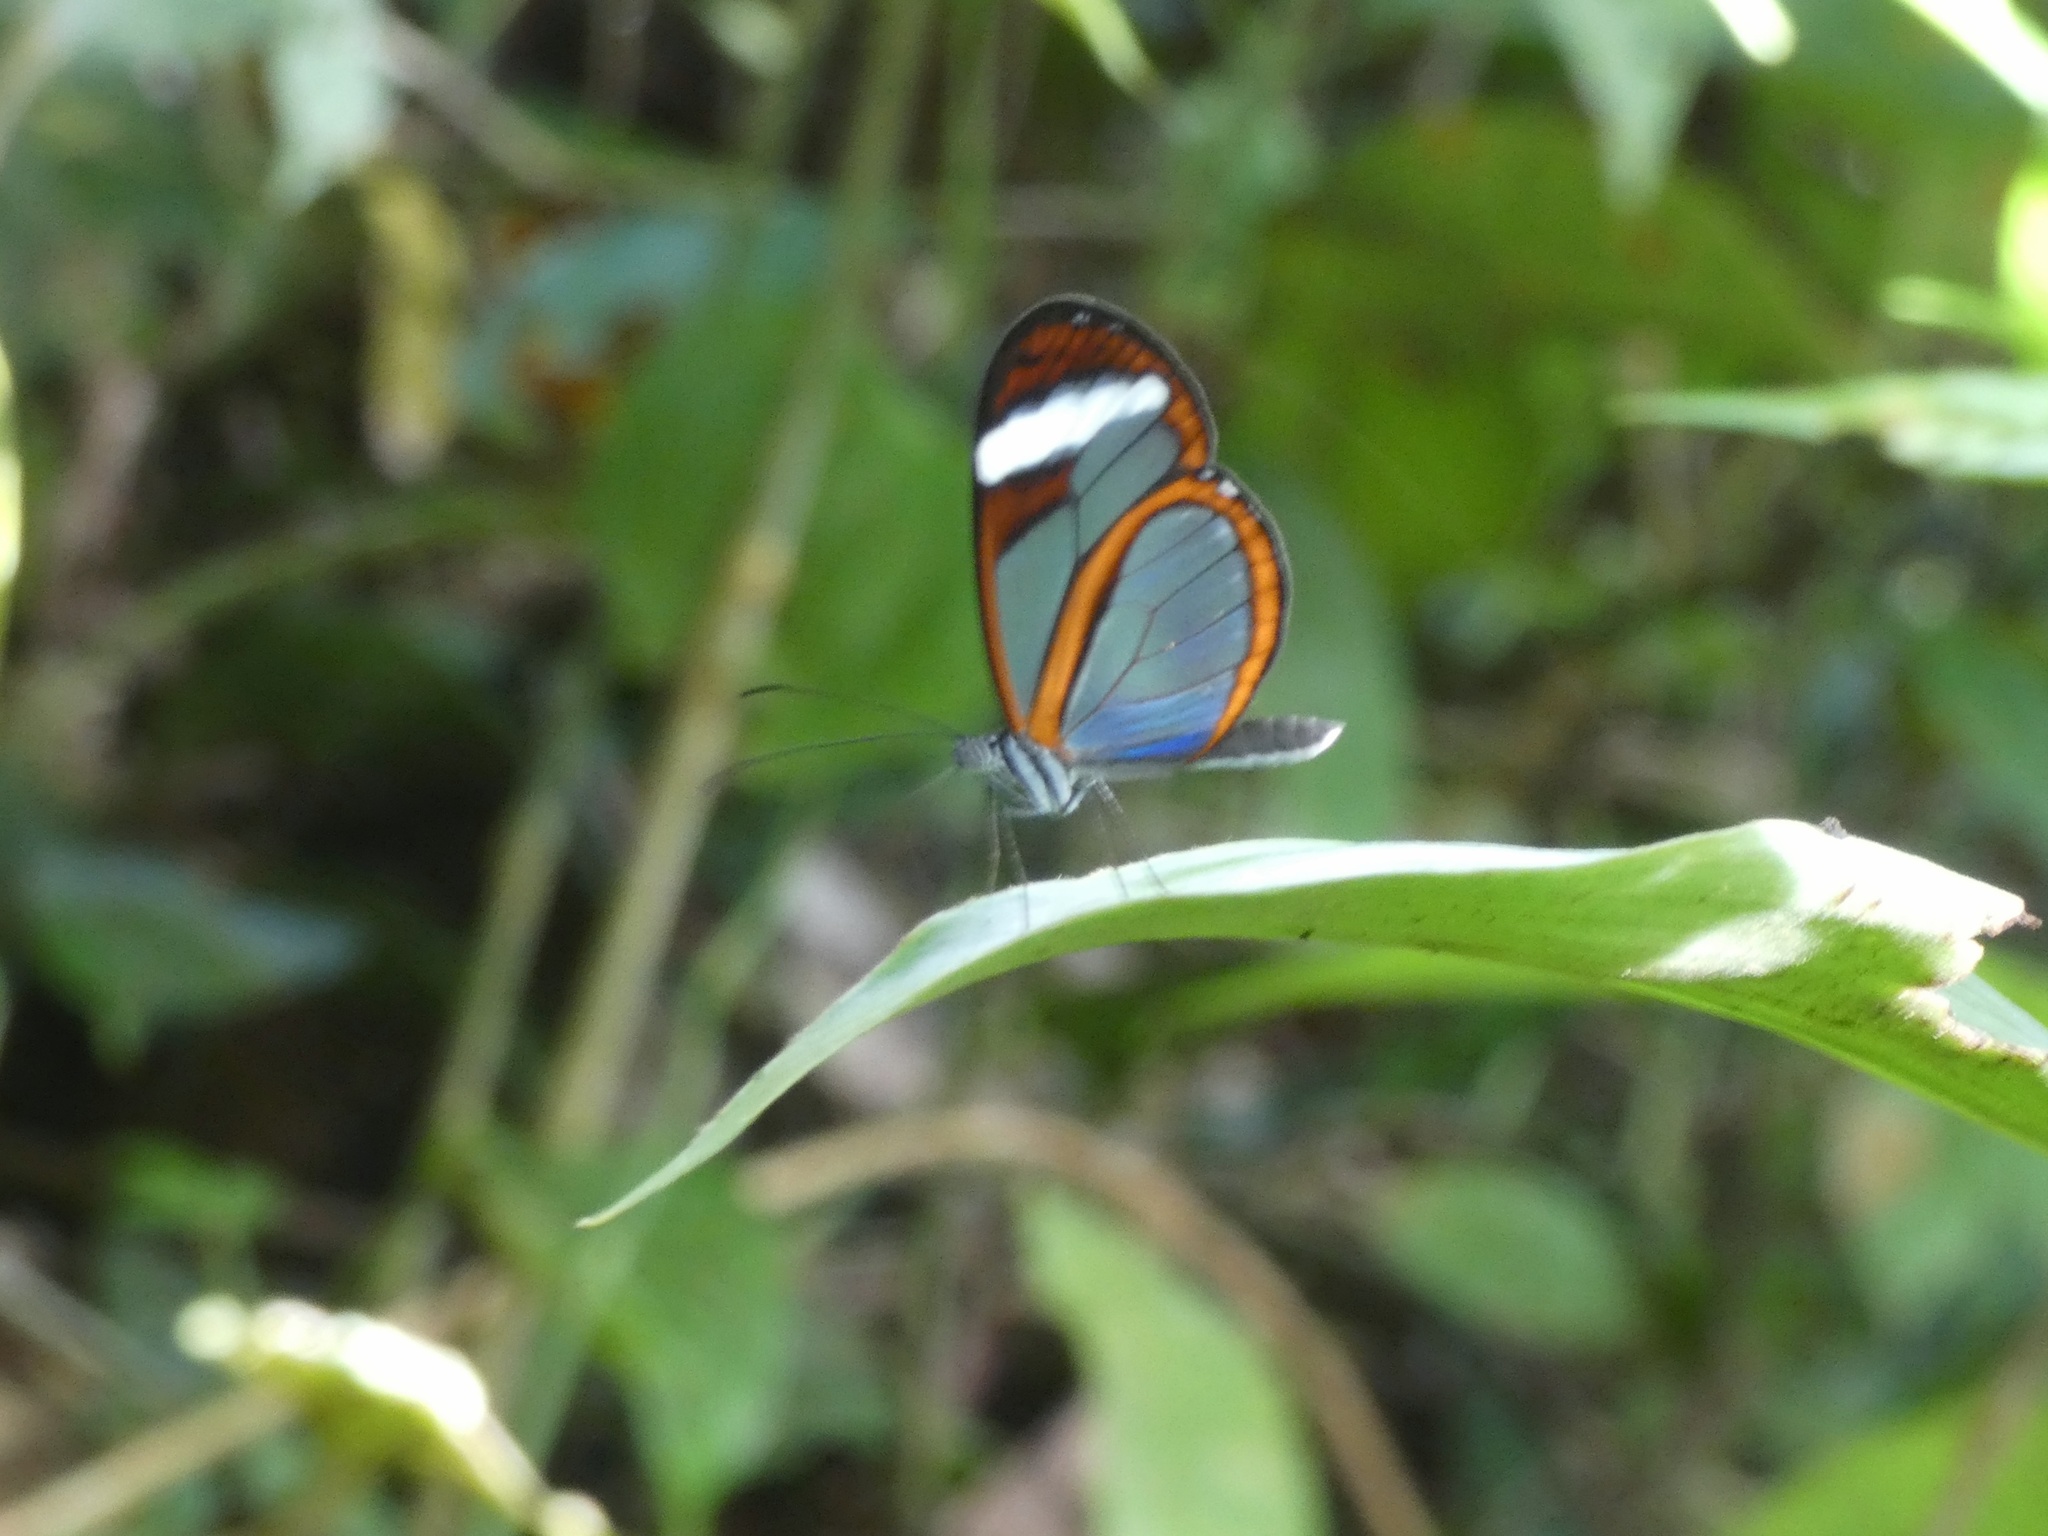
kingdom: Animalia
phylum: Arthropoda
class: Insecta
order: Lepidoptera
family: Nymphalidae
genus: Oleria
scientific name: Oleria paula
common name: Paula's clearwing
